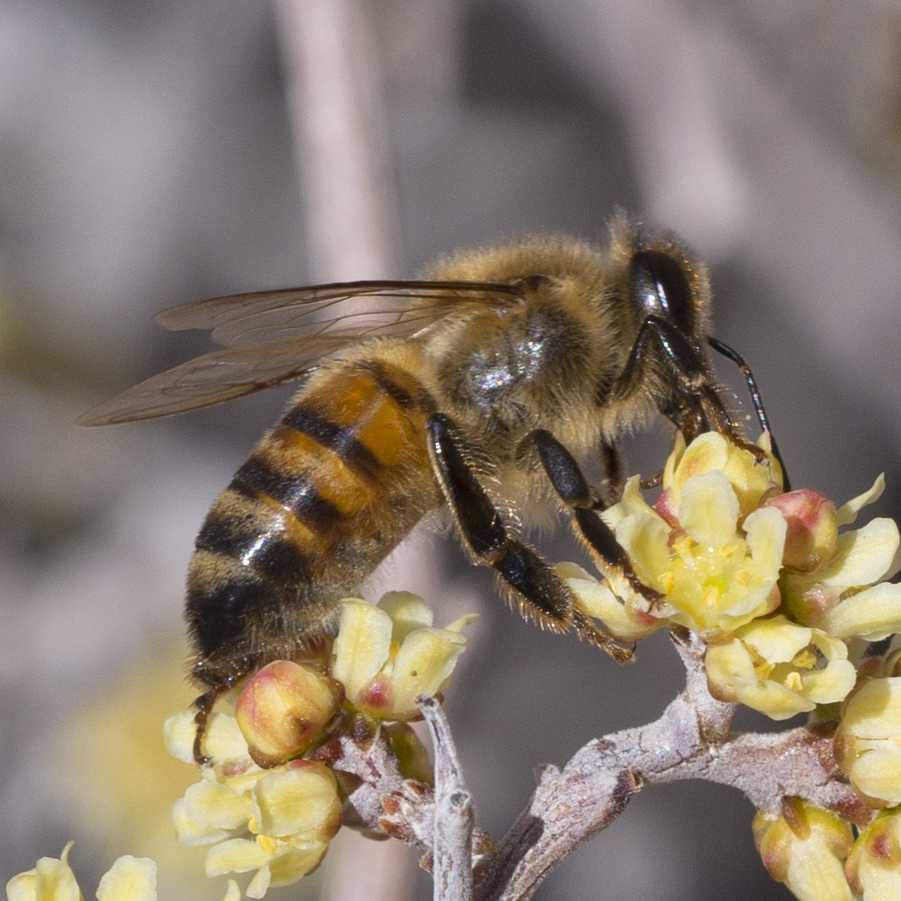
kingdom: Animalia
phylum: Arthropoda
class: Insecta
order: Hymenoptera
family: Apidae
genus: Apis
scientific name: Apis mellifera
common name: Honey bee
